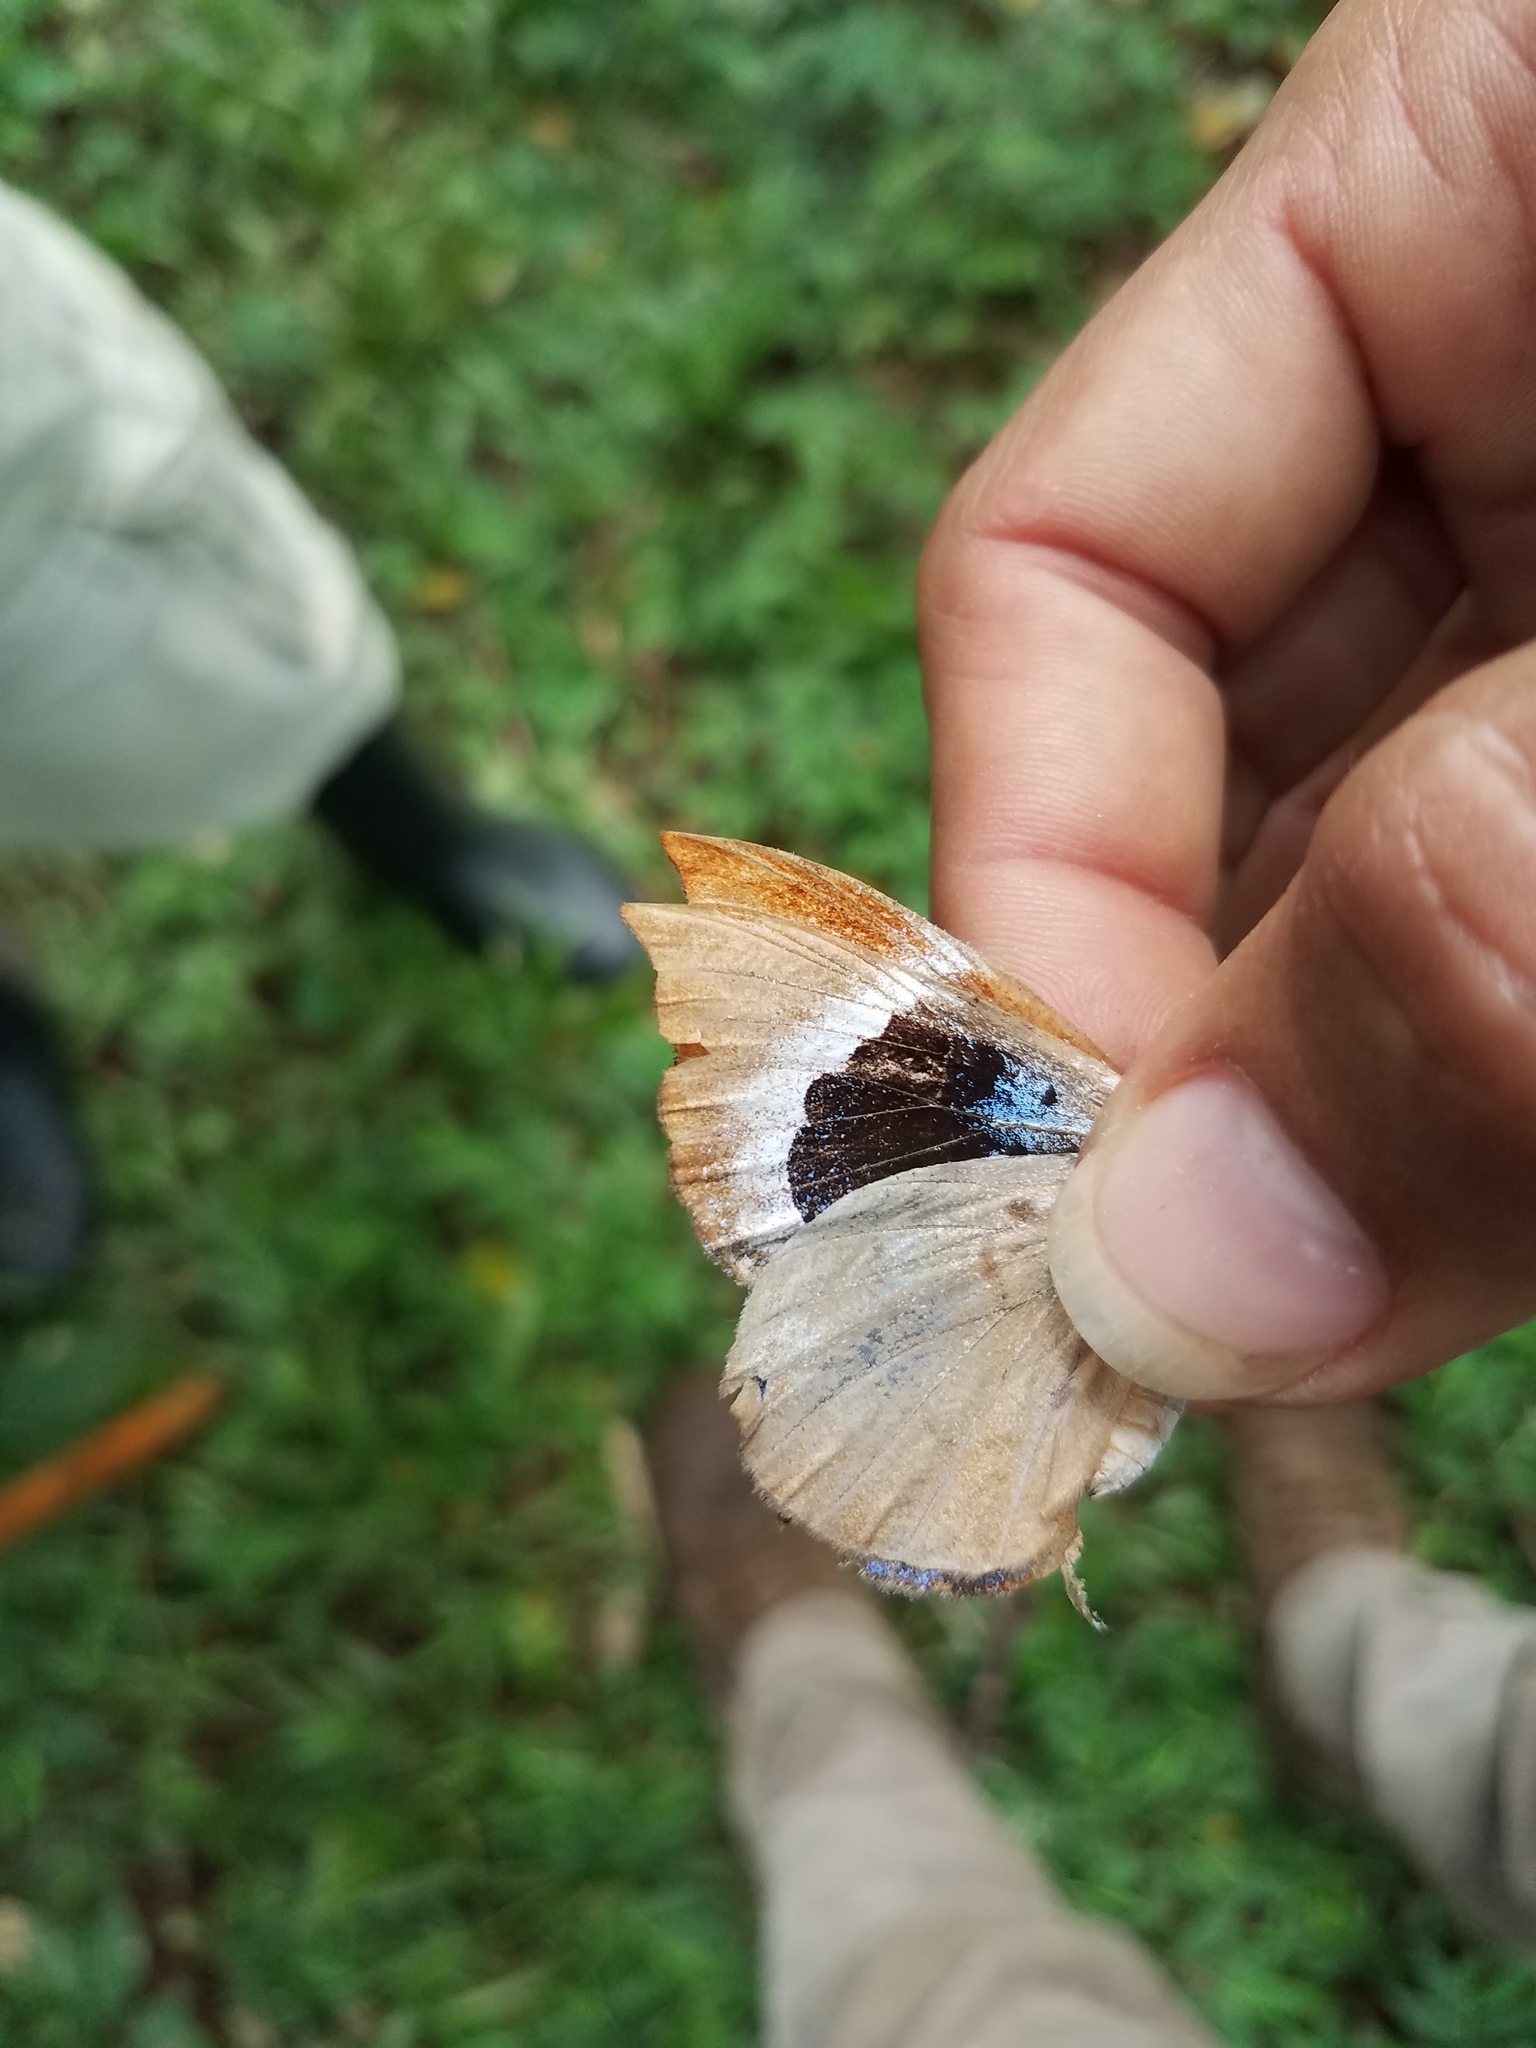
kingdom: Animalia
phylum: Arthropoda
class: Insecta
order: Lepidoptera
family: Riodinidae
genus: Behemothia
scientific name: Behemothia godmanii
